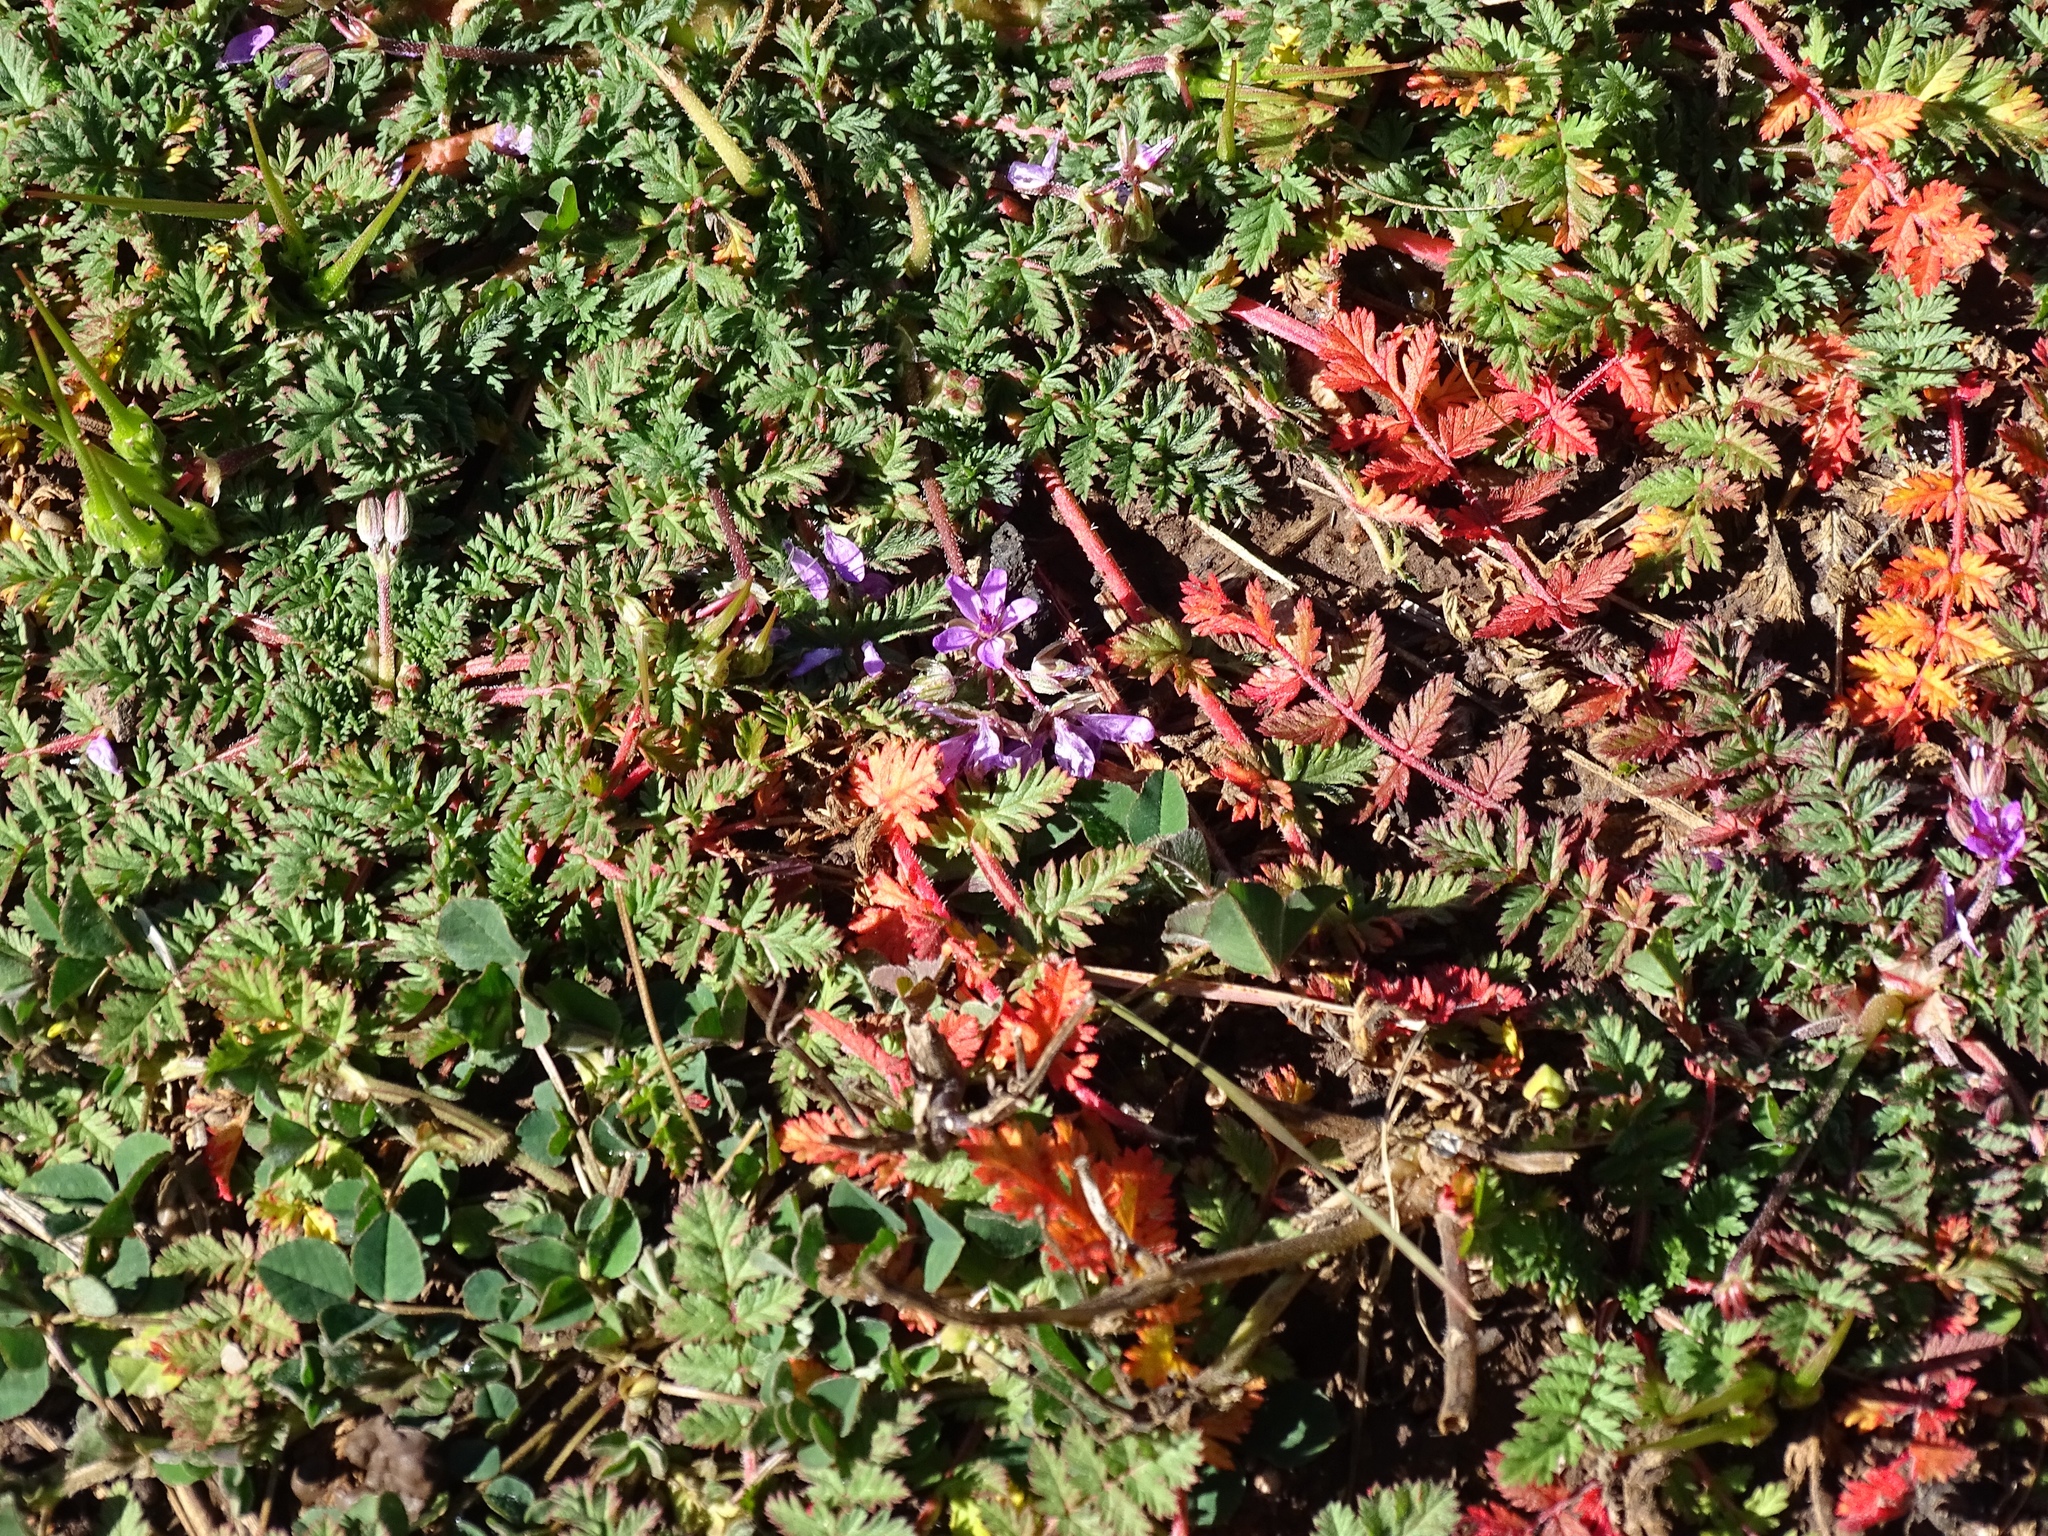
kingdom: Plantae
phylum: Tracheophyta
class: Magnoliopsida
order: Geraniales
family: Geraniaceae
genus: Erodium
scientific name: Erodium cicutarium
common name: Common stork's-bill
